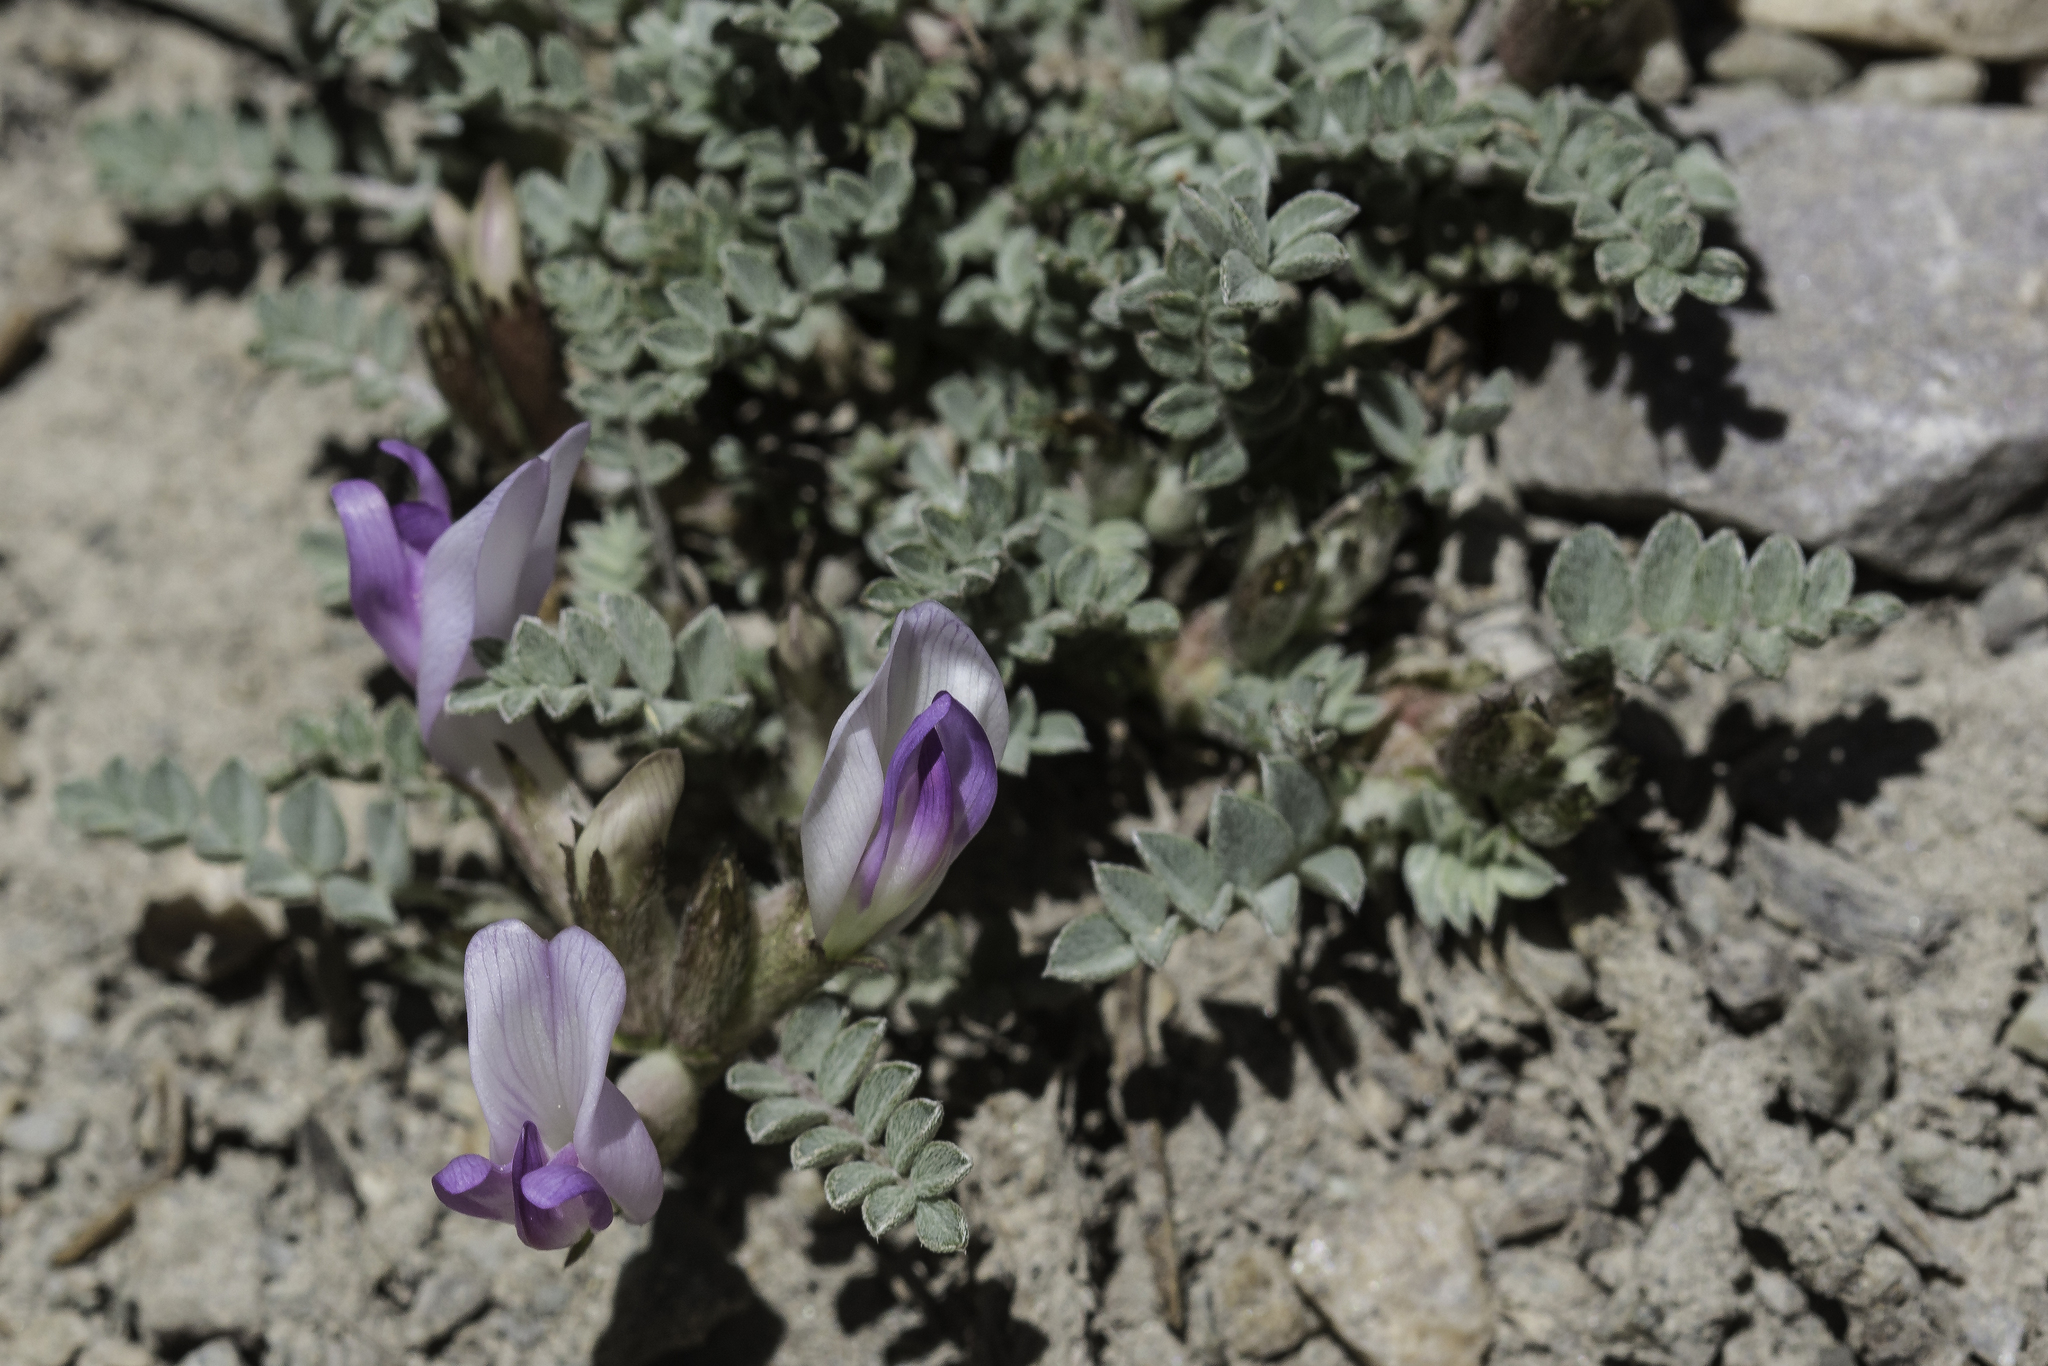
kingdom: Plantae
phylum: Tracheophyta
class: Magnoliopsida
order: Fabales
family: Fabaceae
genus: Astragalus
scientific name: Astragalus piutensis
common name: Sevier milkvetch
